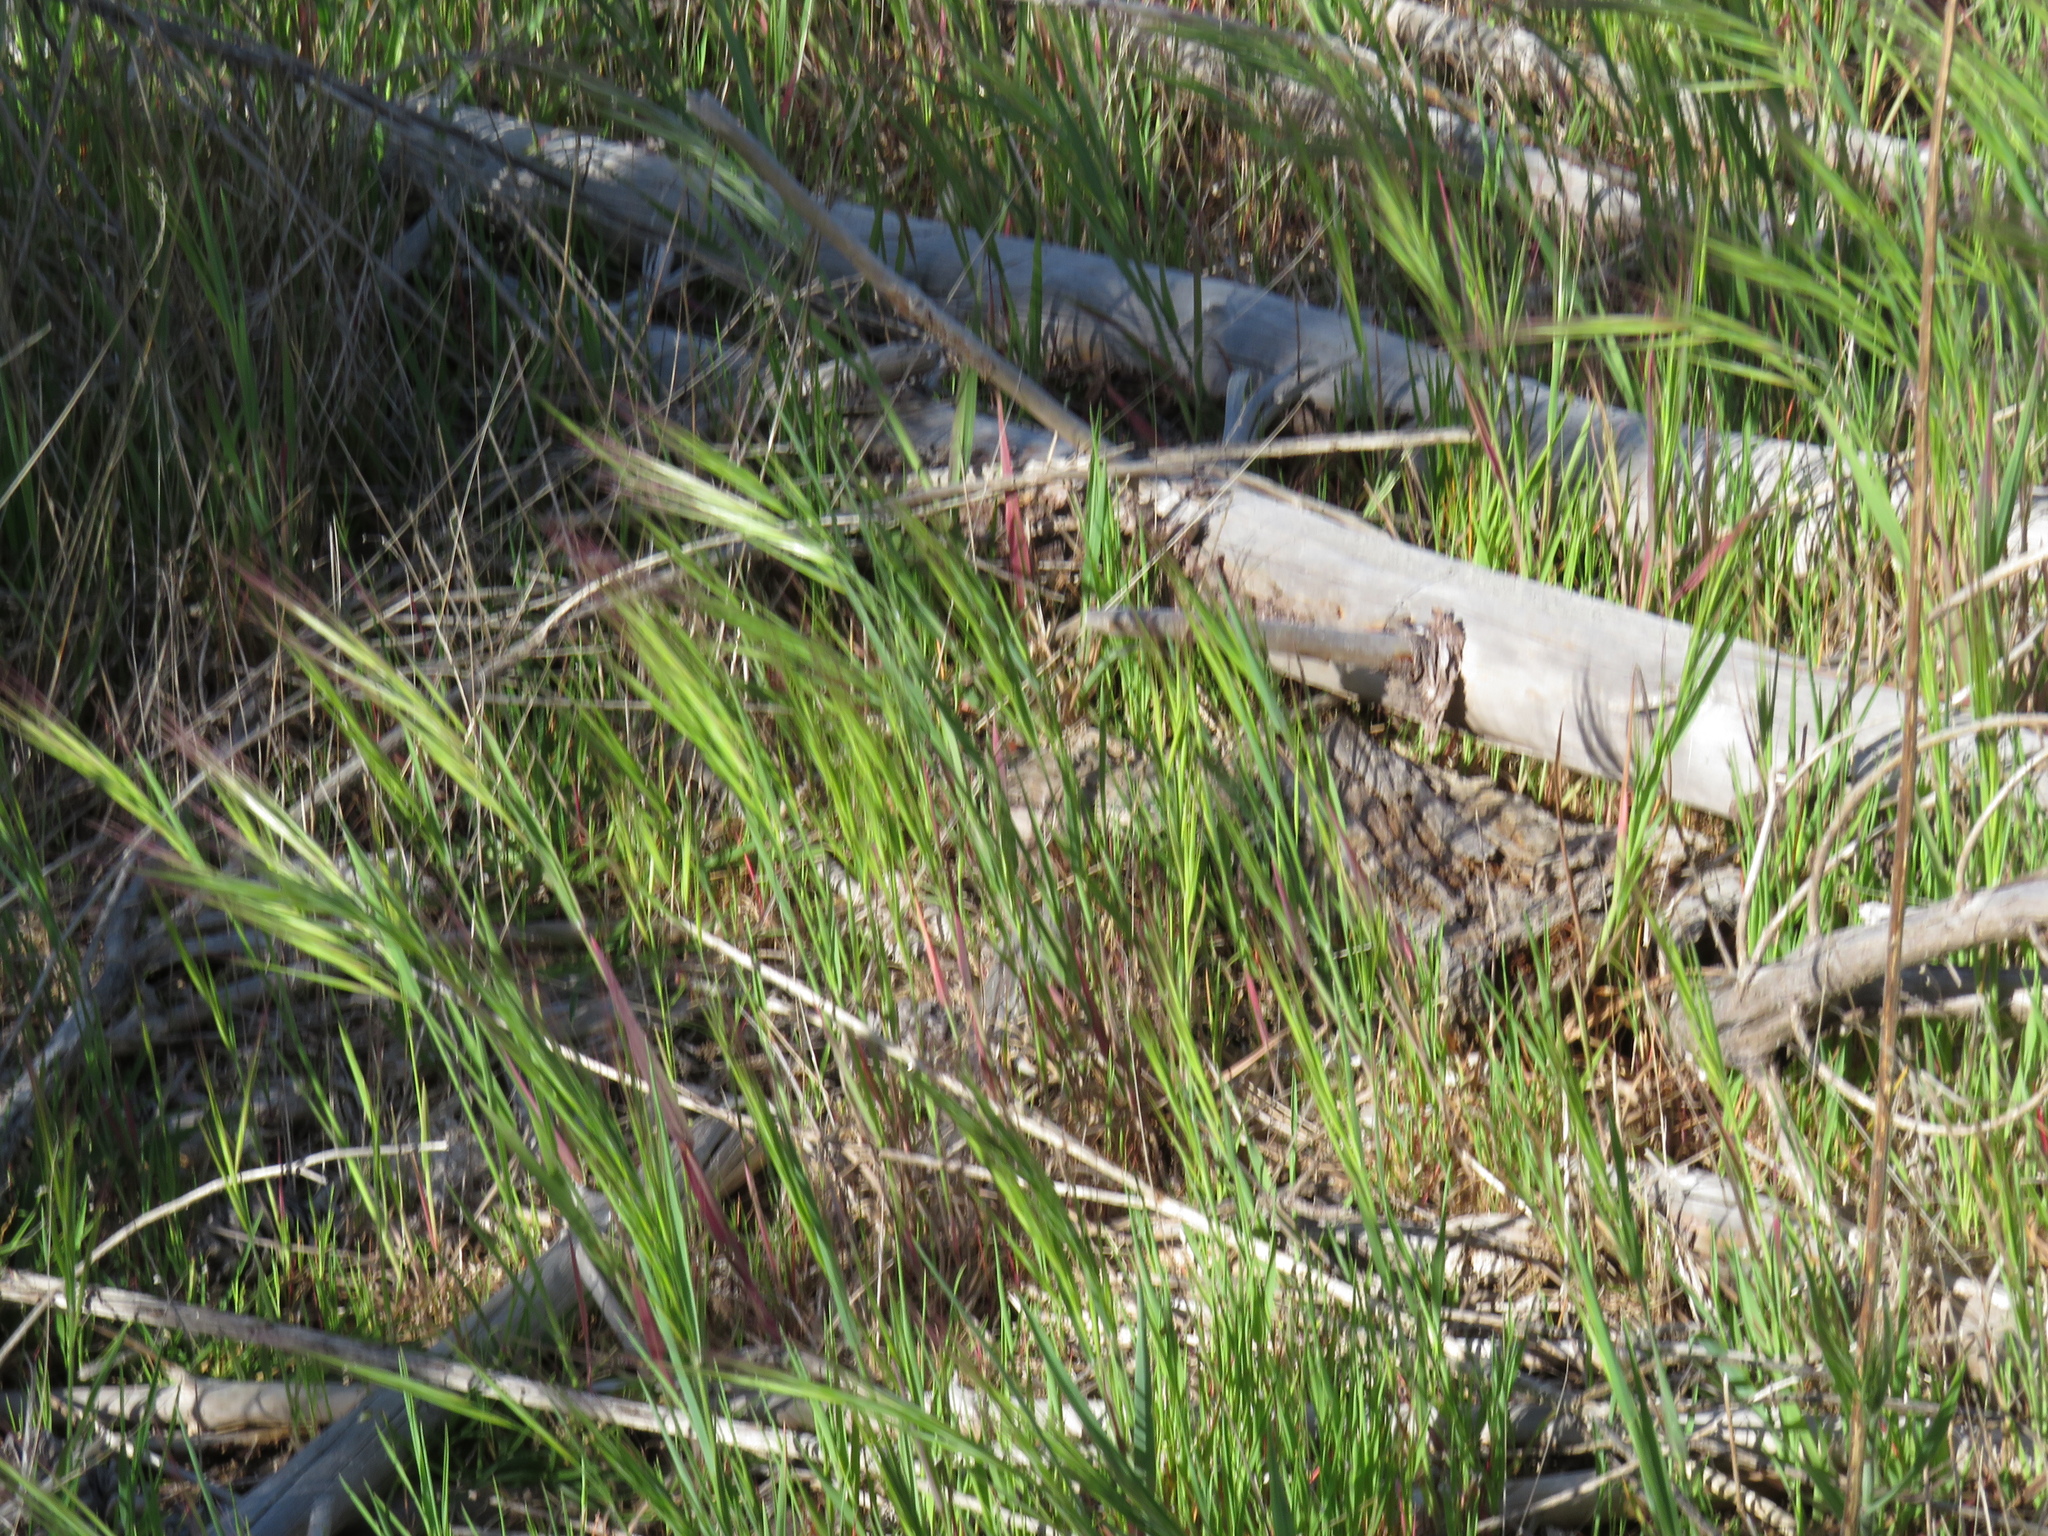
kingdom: Plantae
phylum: Tracheophyta
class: Liliopsida
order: Poales
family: Poaceae
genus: Bromus
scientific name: Bromus diandrus
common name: Ripgut brome
